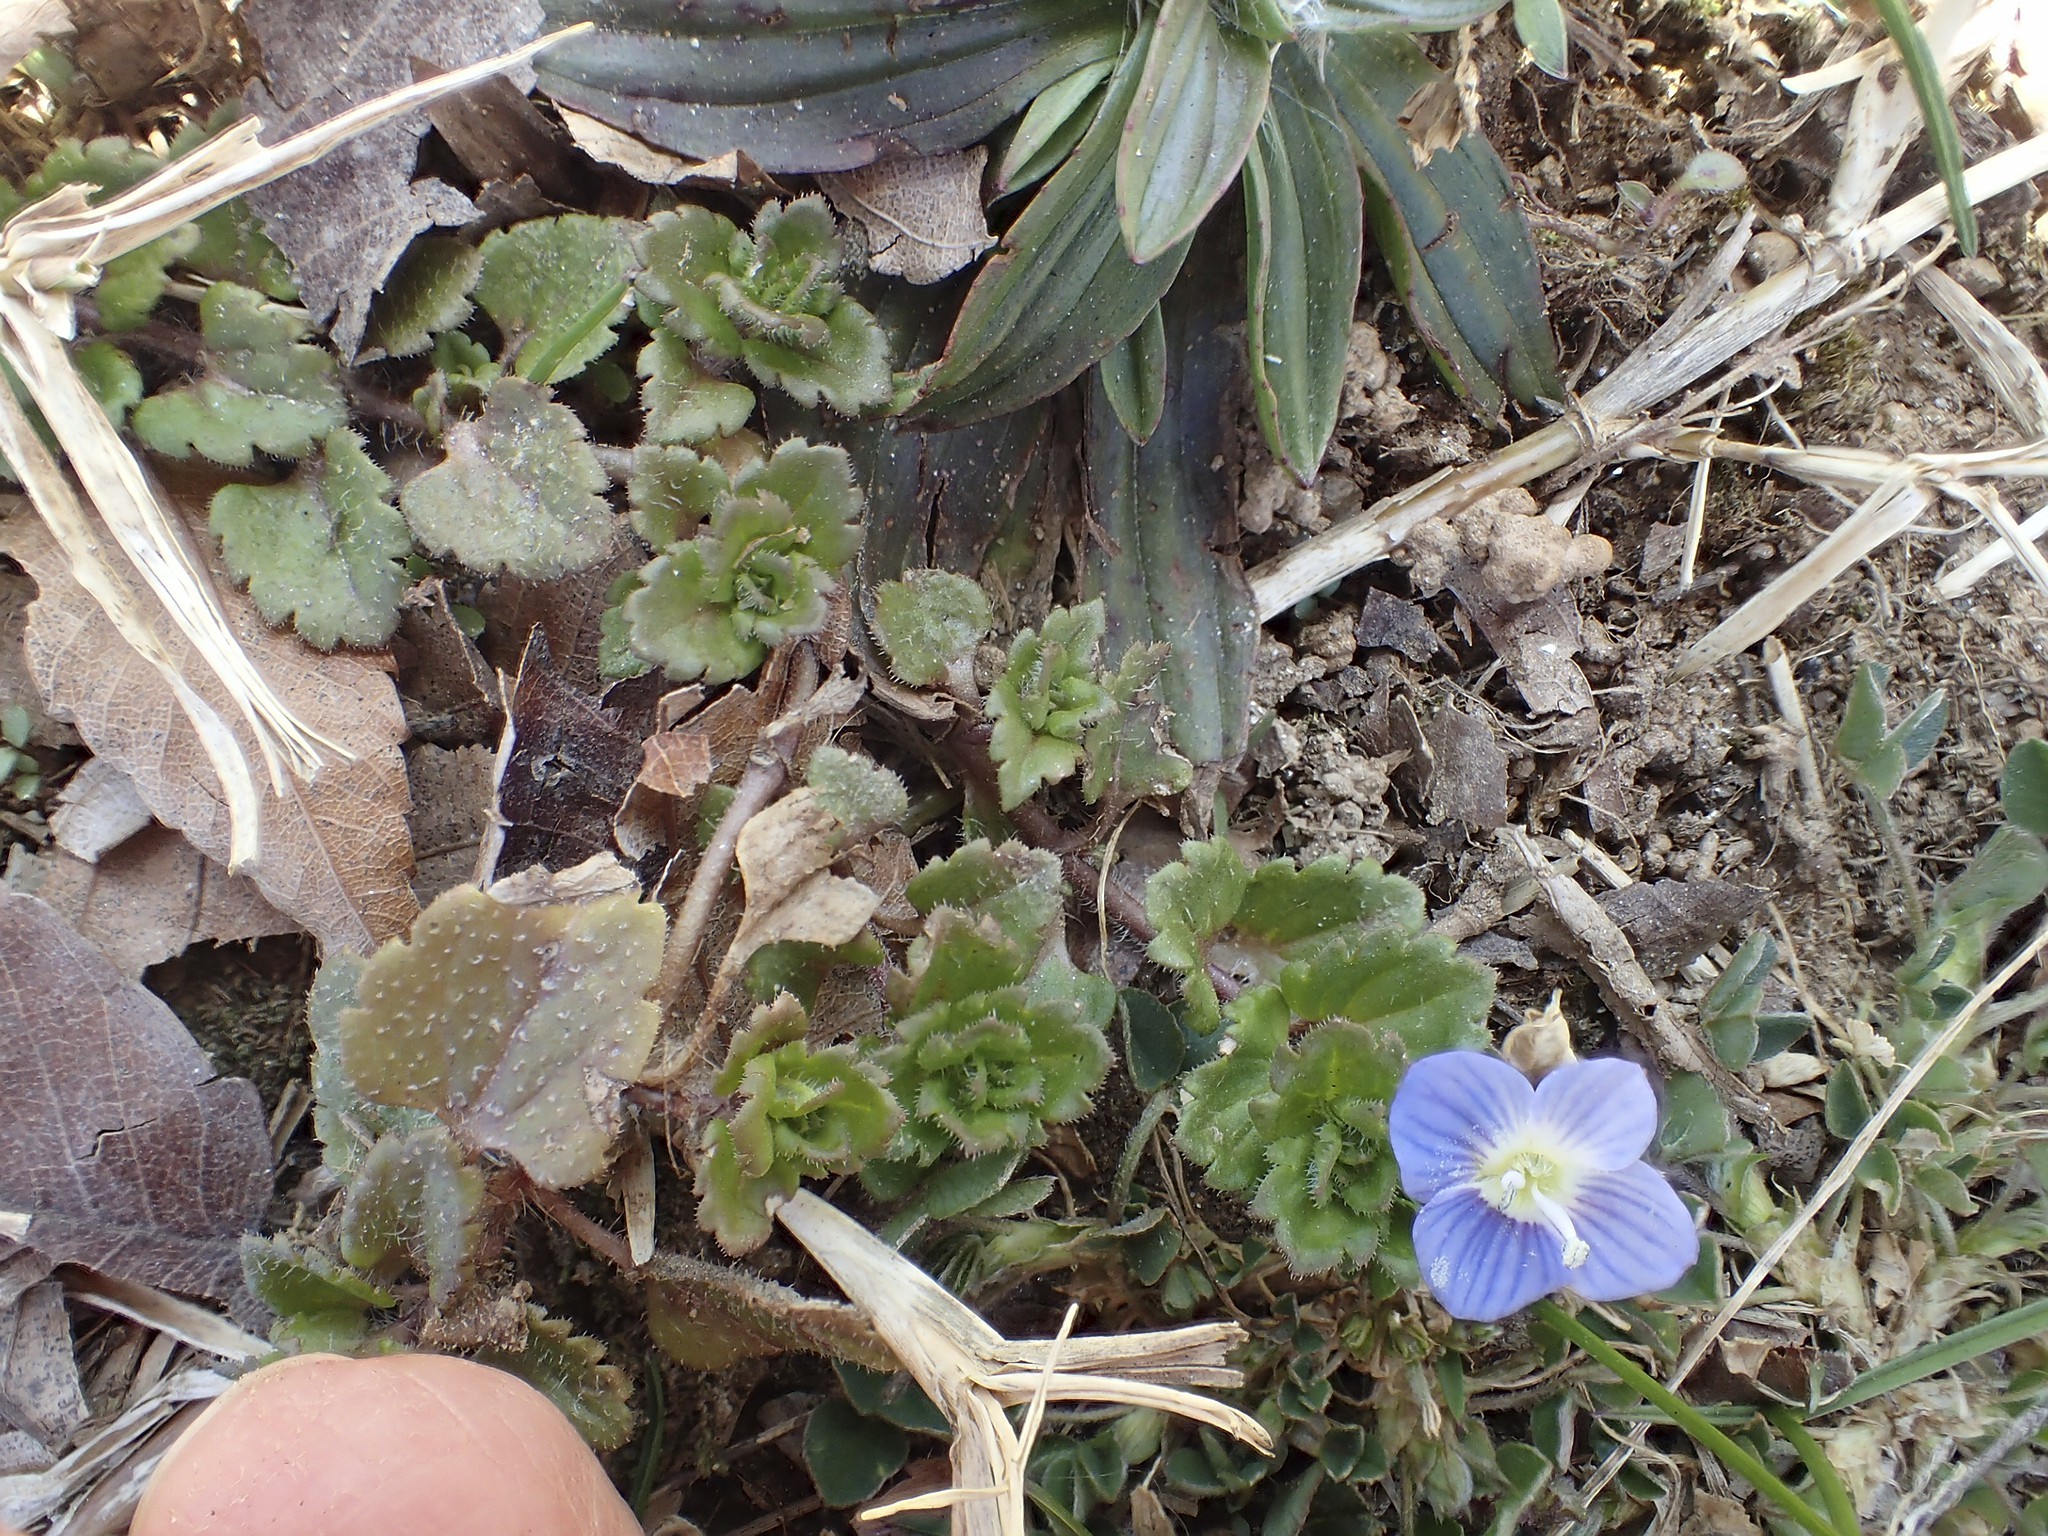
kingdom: Plantae
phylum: Tracheophyta
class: Magnoliopsida
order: Lamiales
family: Plantaginaceae
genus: Veronica
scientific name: Veronica persica
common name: Common field-speedwell
